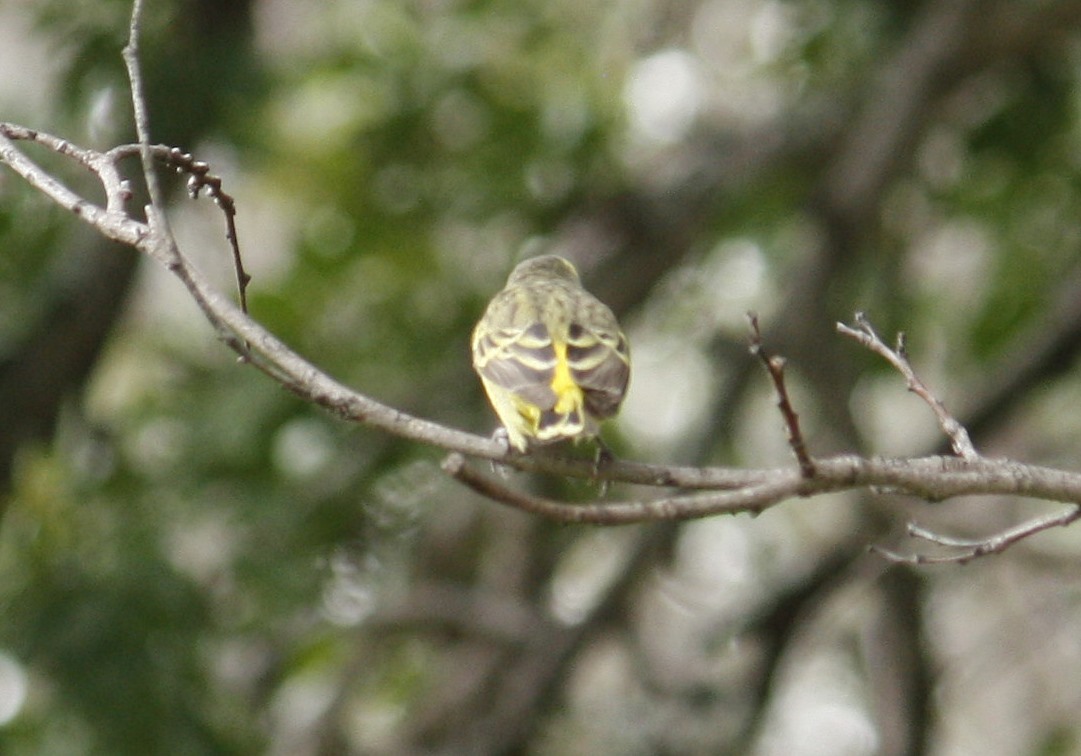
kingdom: Animalia
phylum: Chordata
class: Aves
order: Passeriformes
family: Fringillidae
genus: Crithagra
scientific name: Crithagra mozambica
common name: Yellow-fronted canary
